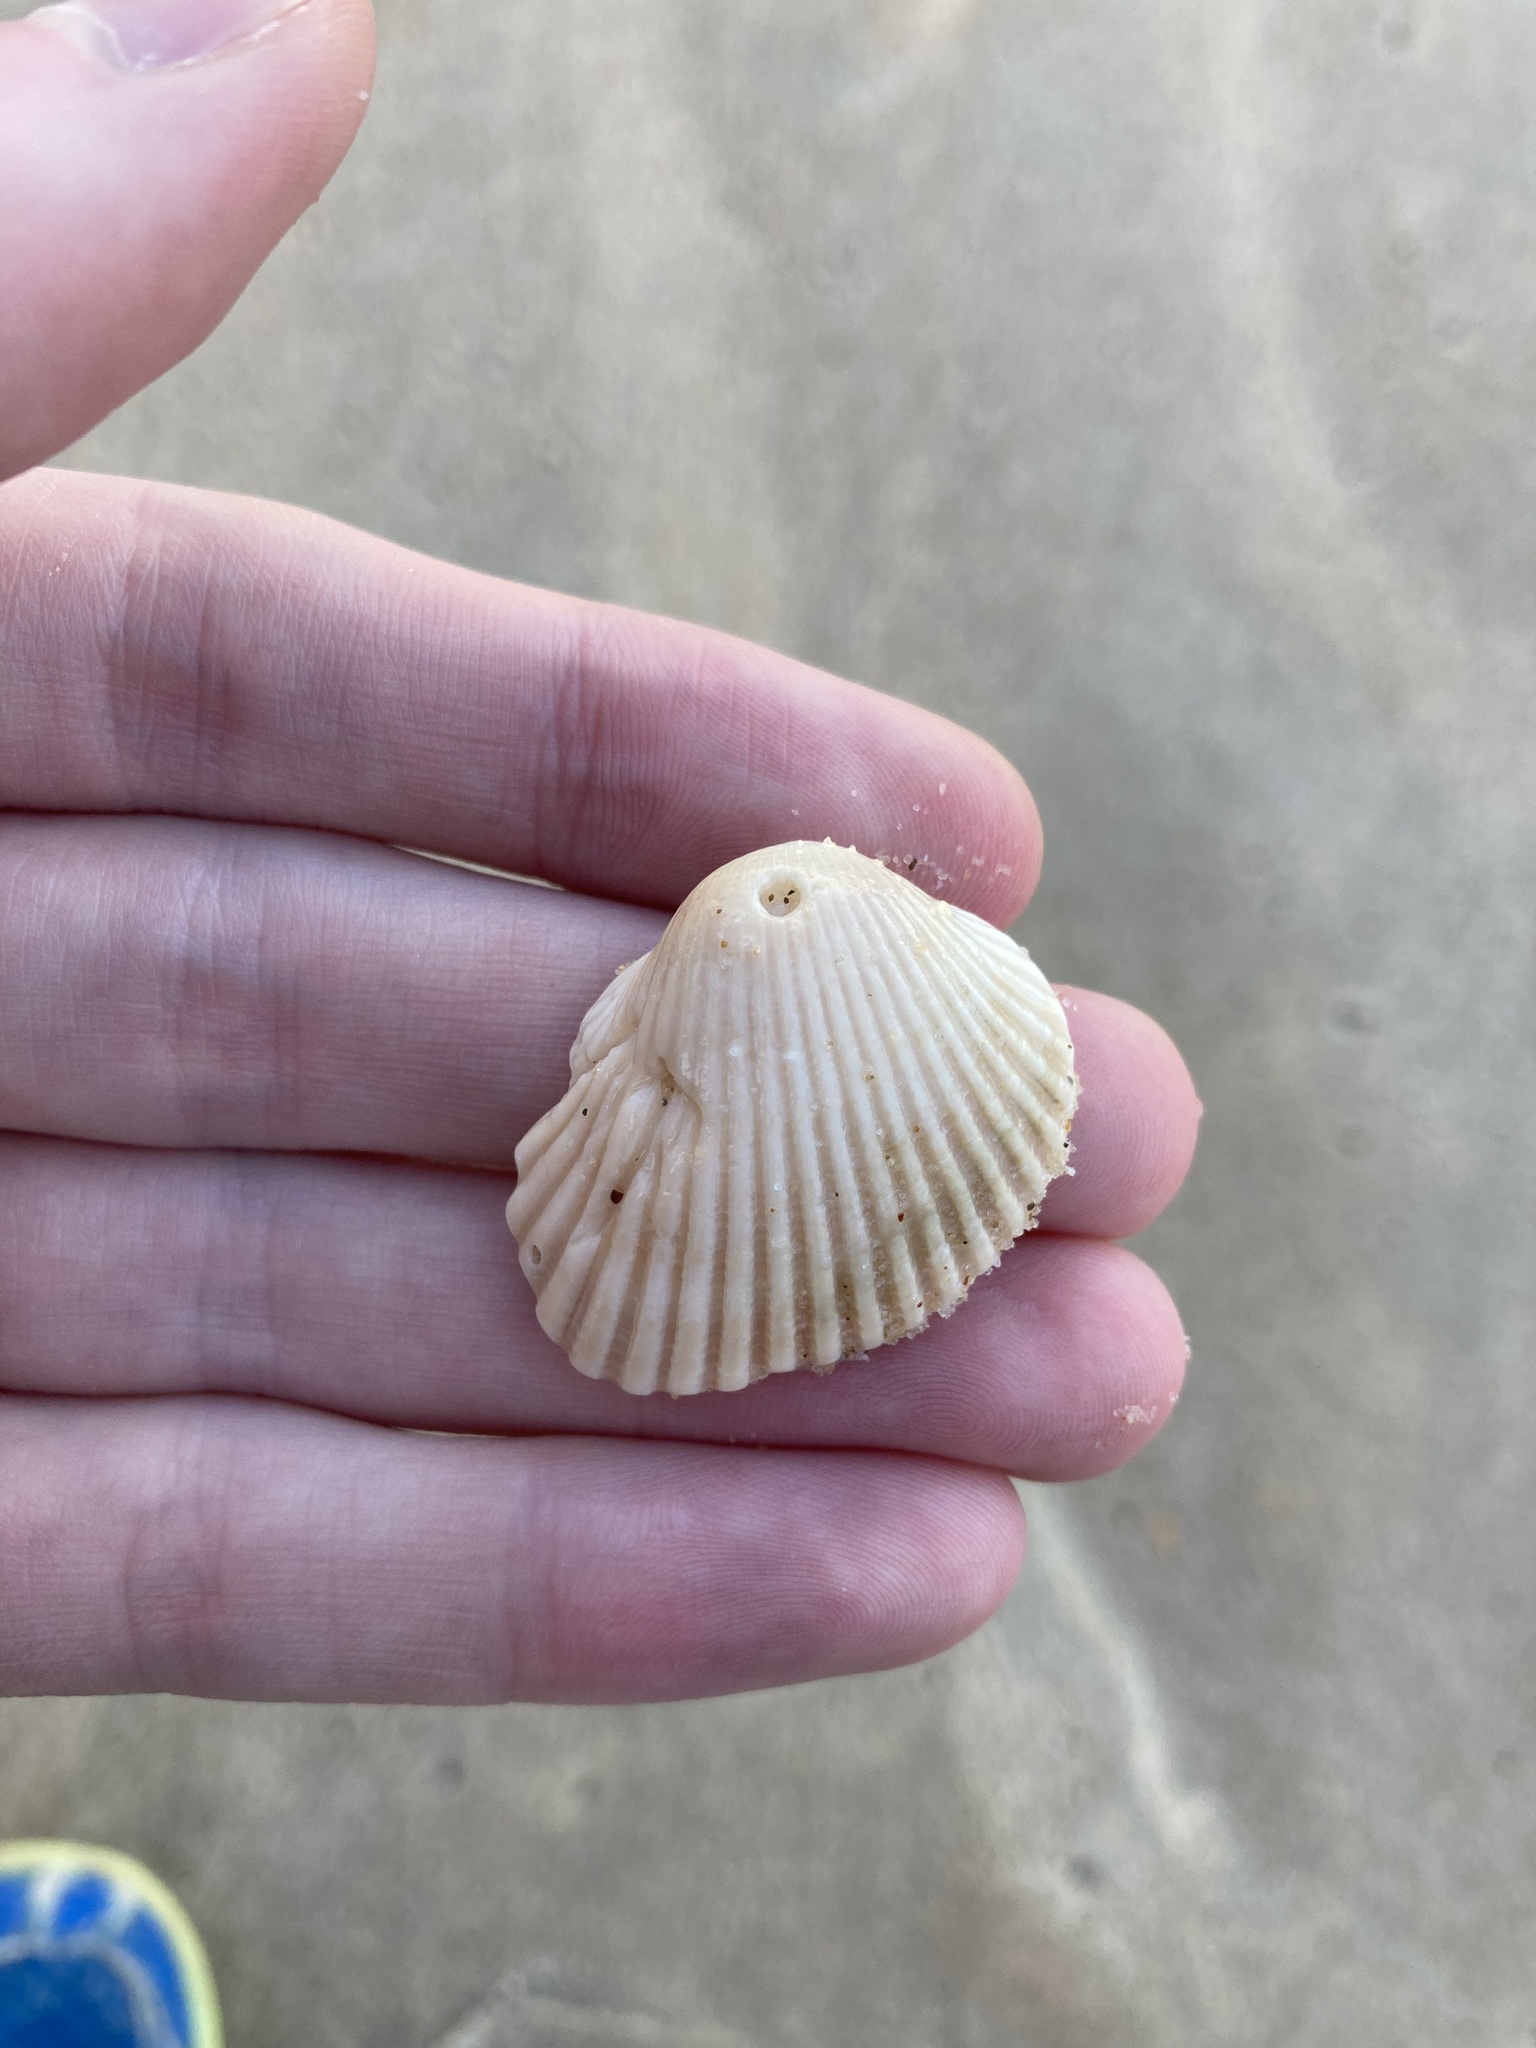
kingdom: Animalia
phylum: Mollusca
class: Bivalvia
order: Arcida
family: Arcidae
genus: Anadara
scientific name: Anadara trapezia
